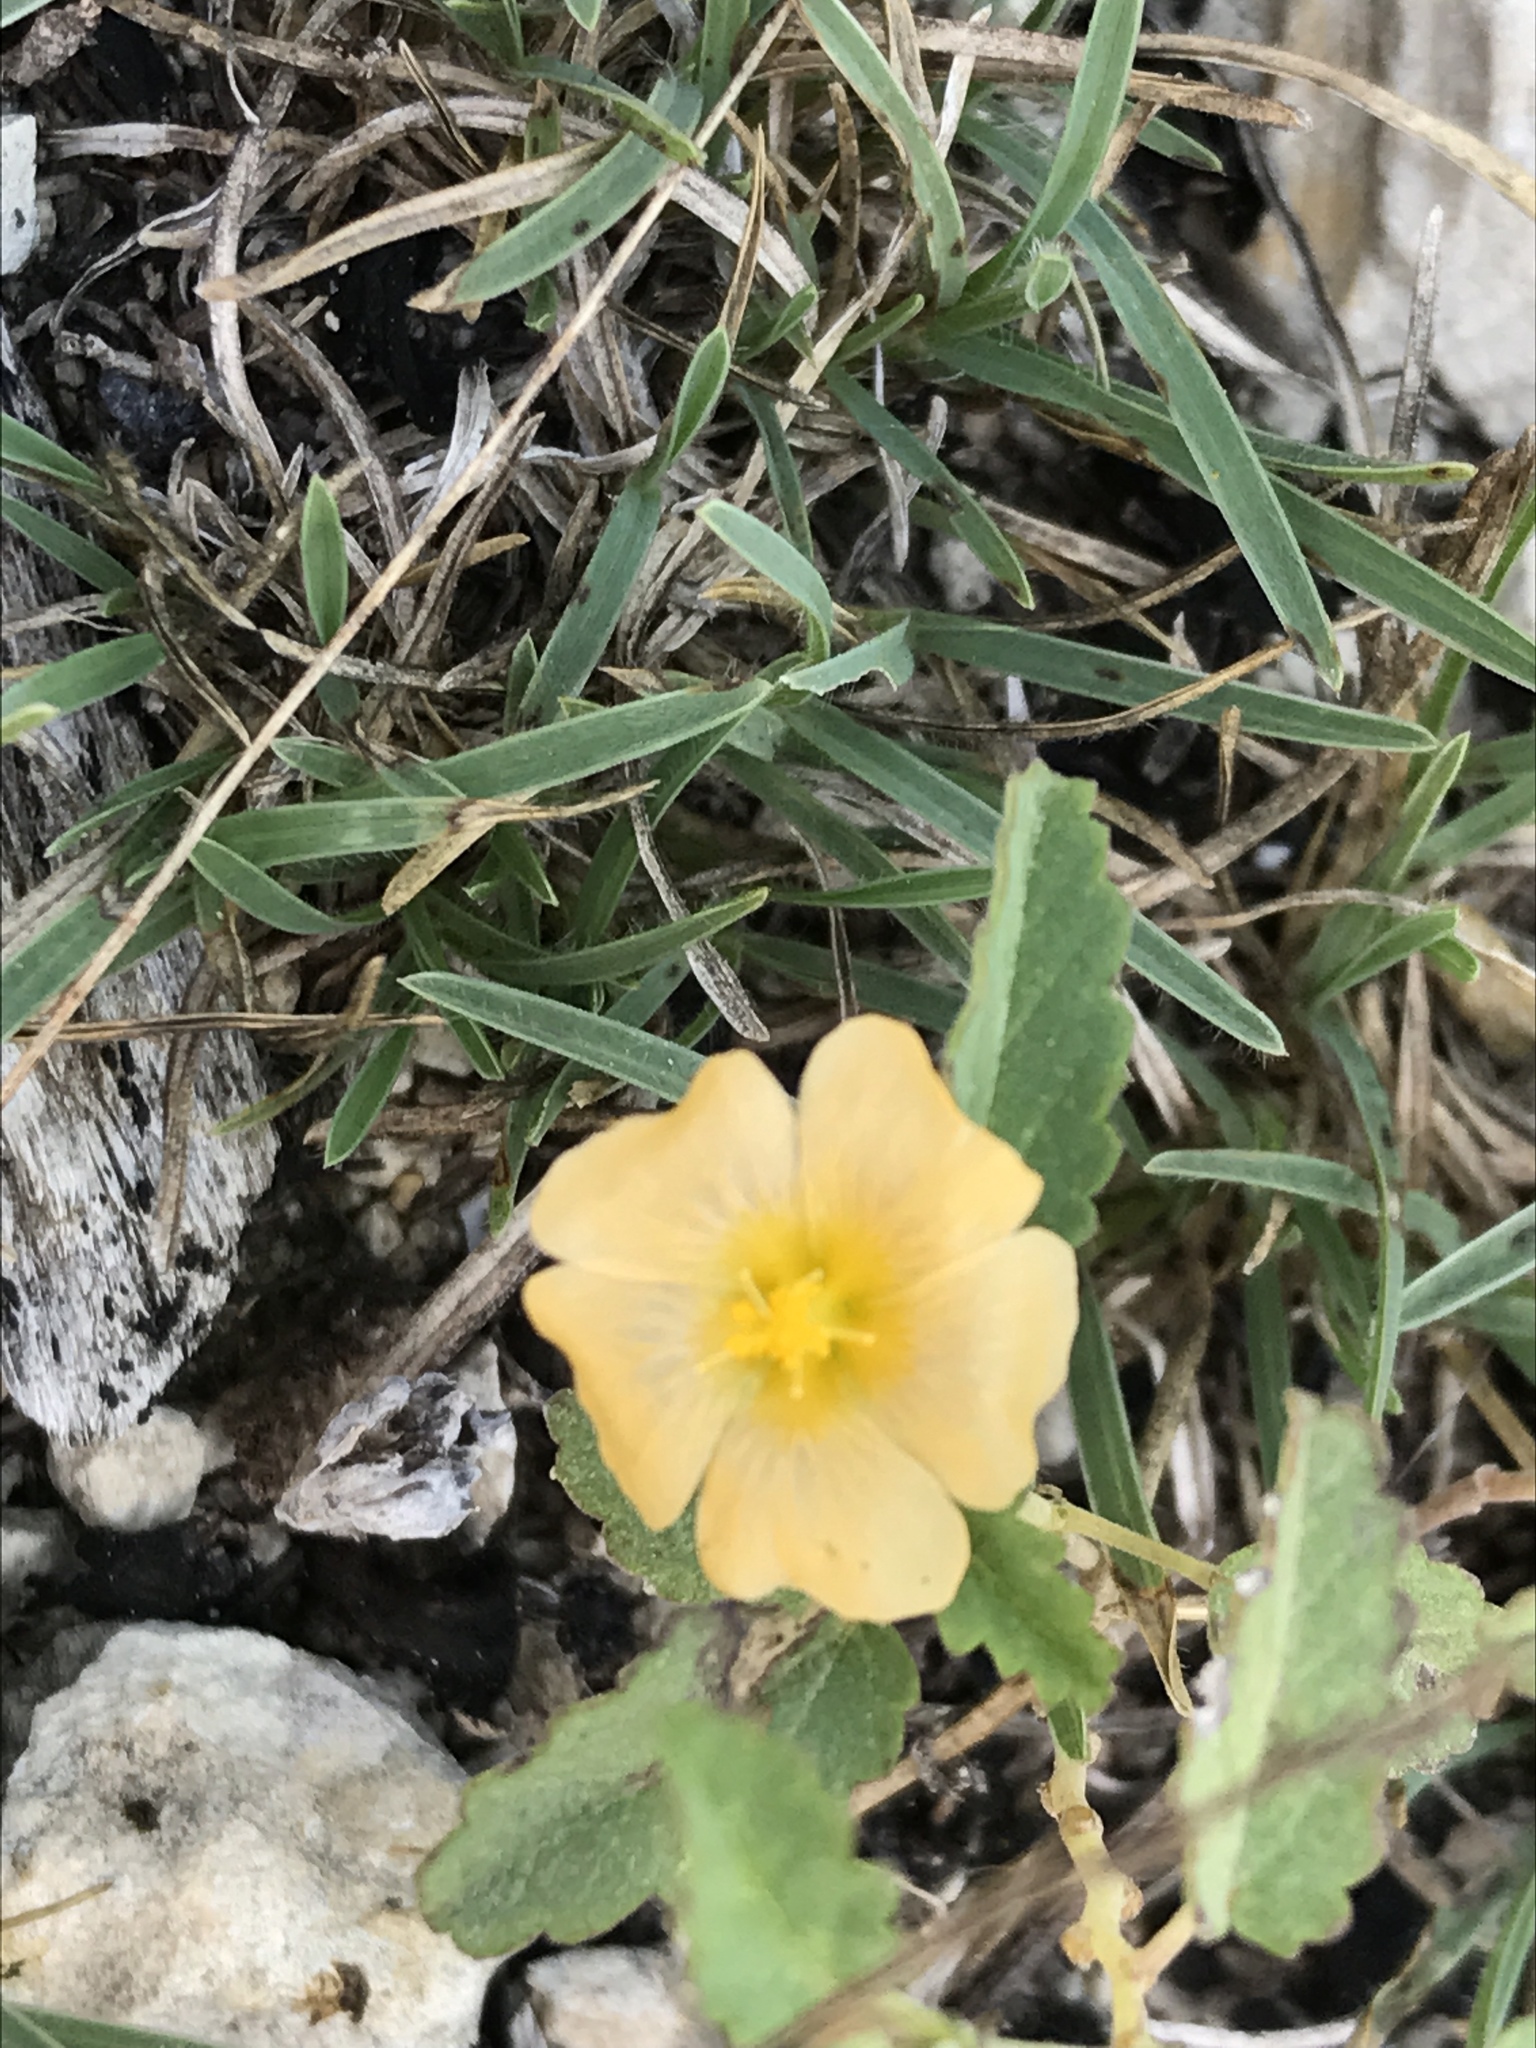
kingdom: Plantae
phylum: Tracheophyta
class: Magnoliopsida
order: Malvales
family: Malvaceae
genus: Sida
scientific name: Sida abutilifolia
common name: Spreading fanpetals
